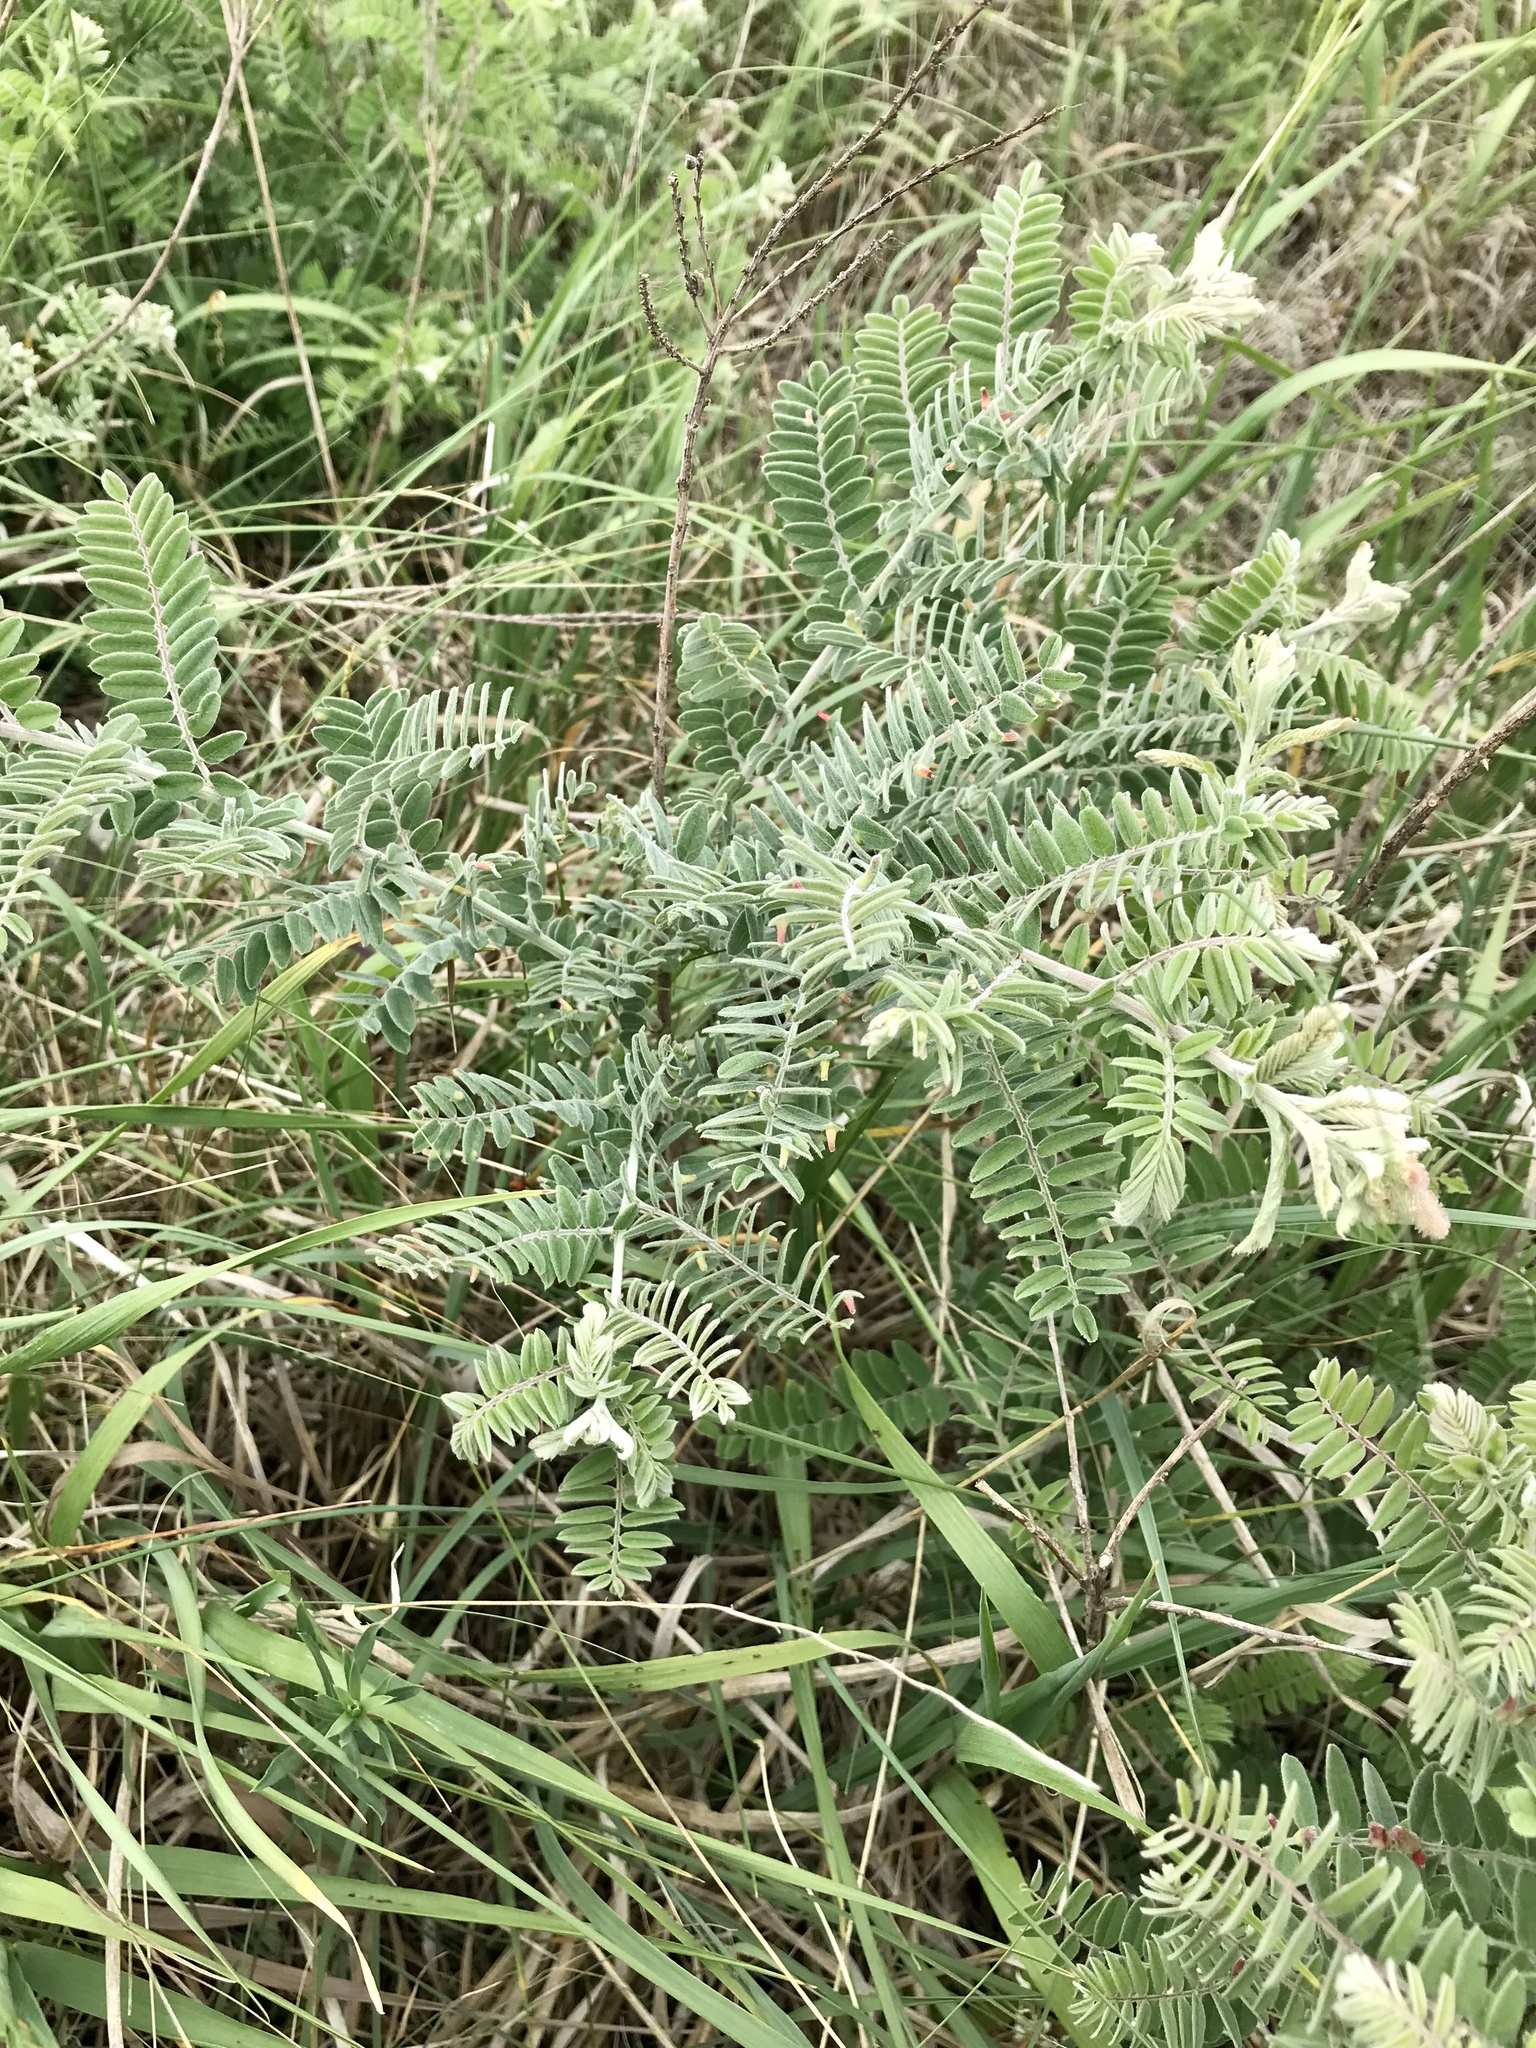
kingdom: Plantae
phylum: Tracheophyta
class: Magnoliopsida
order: Fabales
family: Fabaceae
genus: Amorpha
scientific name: Amorpha canescens
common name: Leadplant
